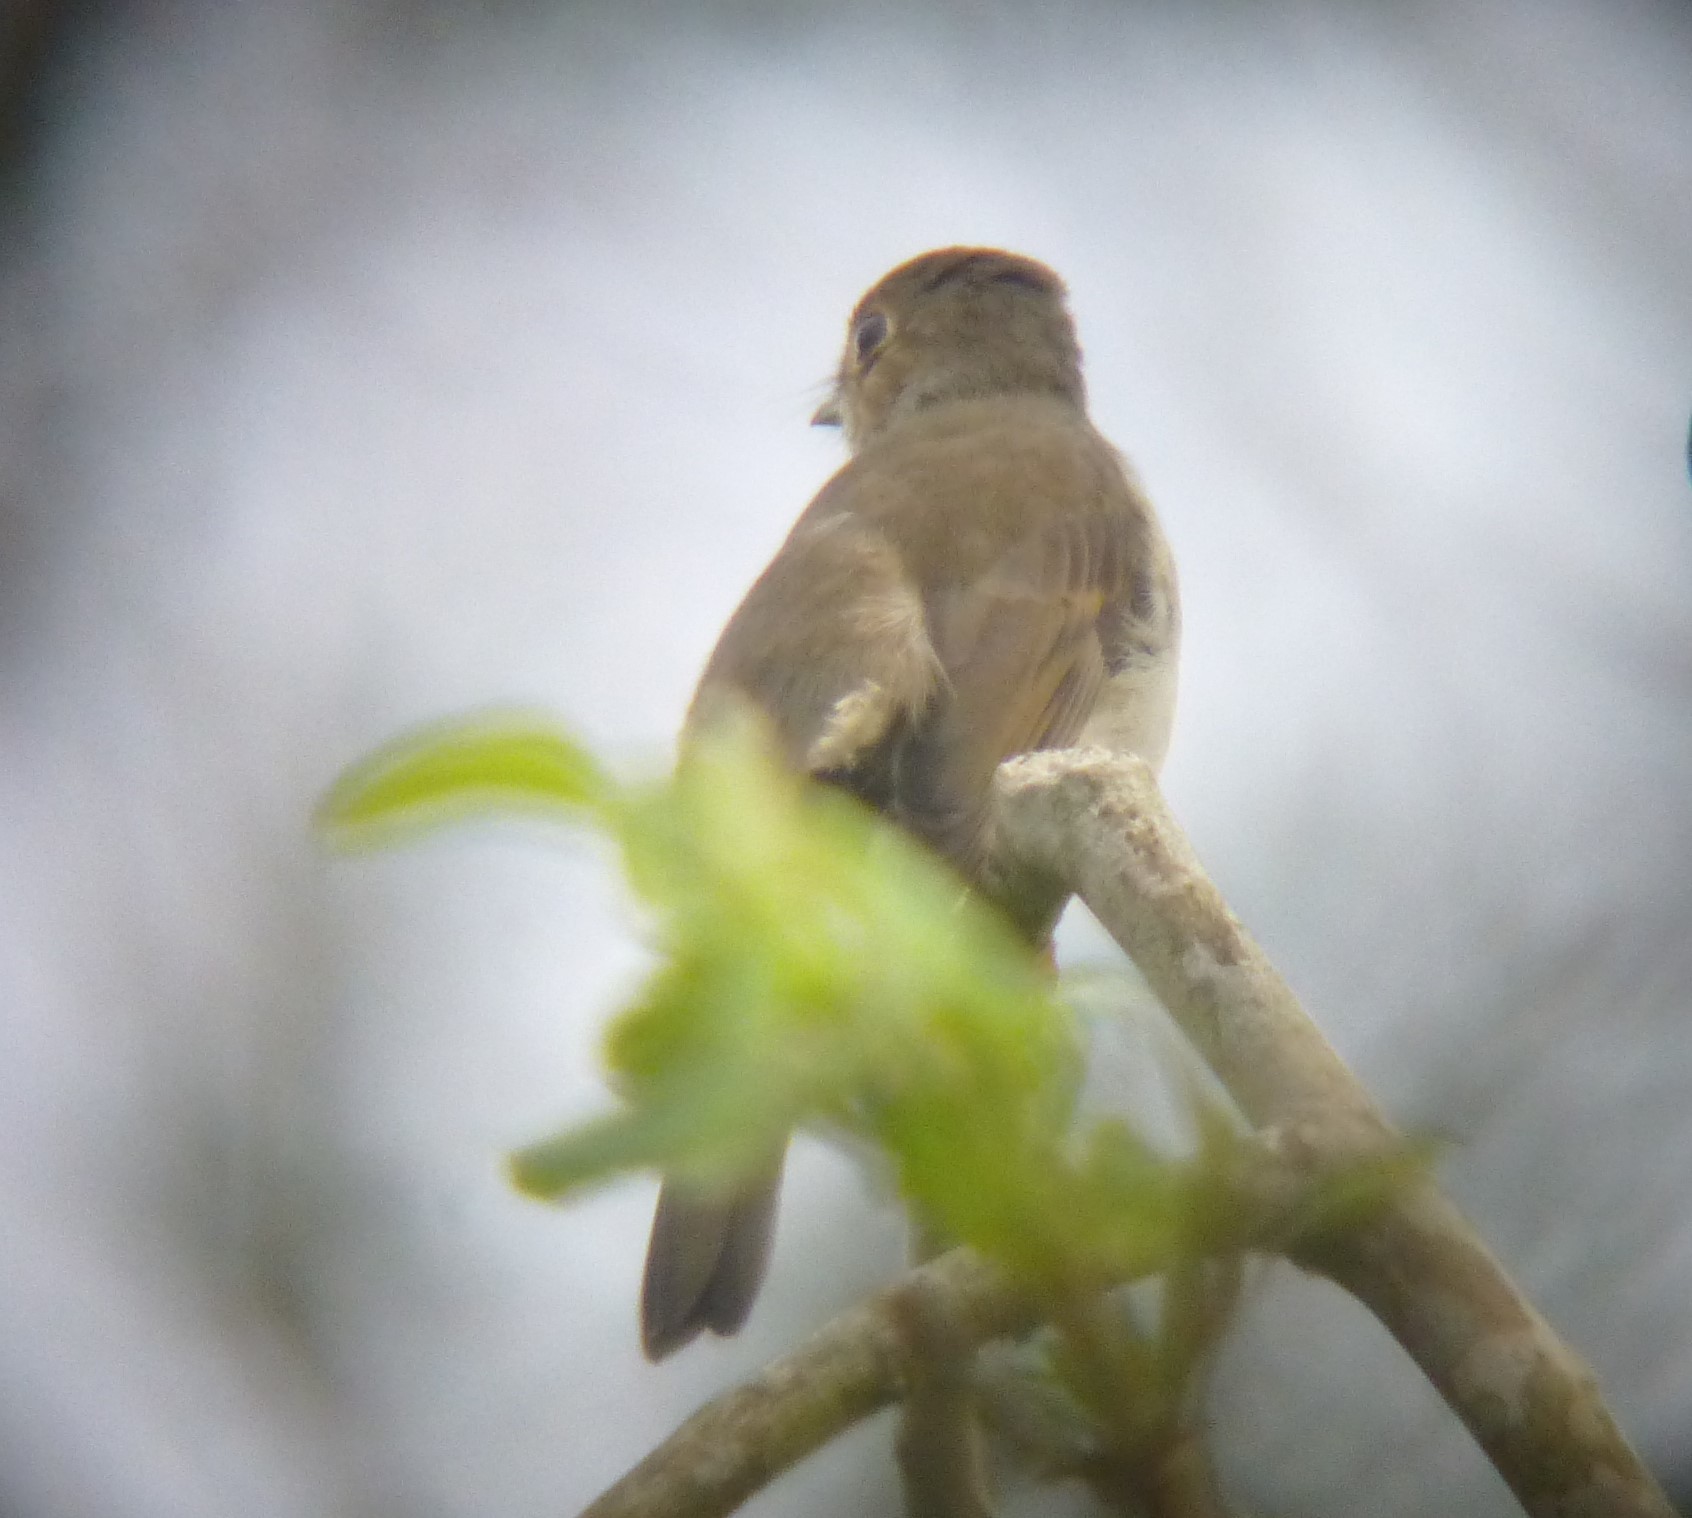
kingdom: Animalia
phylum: Chordata
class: Aves
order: Passeriformes
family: Turdidae
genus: Myadestes
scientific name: Myadestes elisabeth
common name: Cuban solitaire
